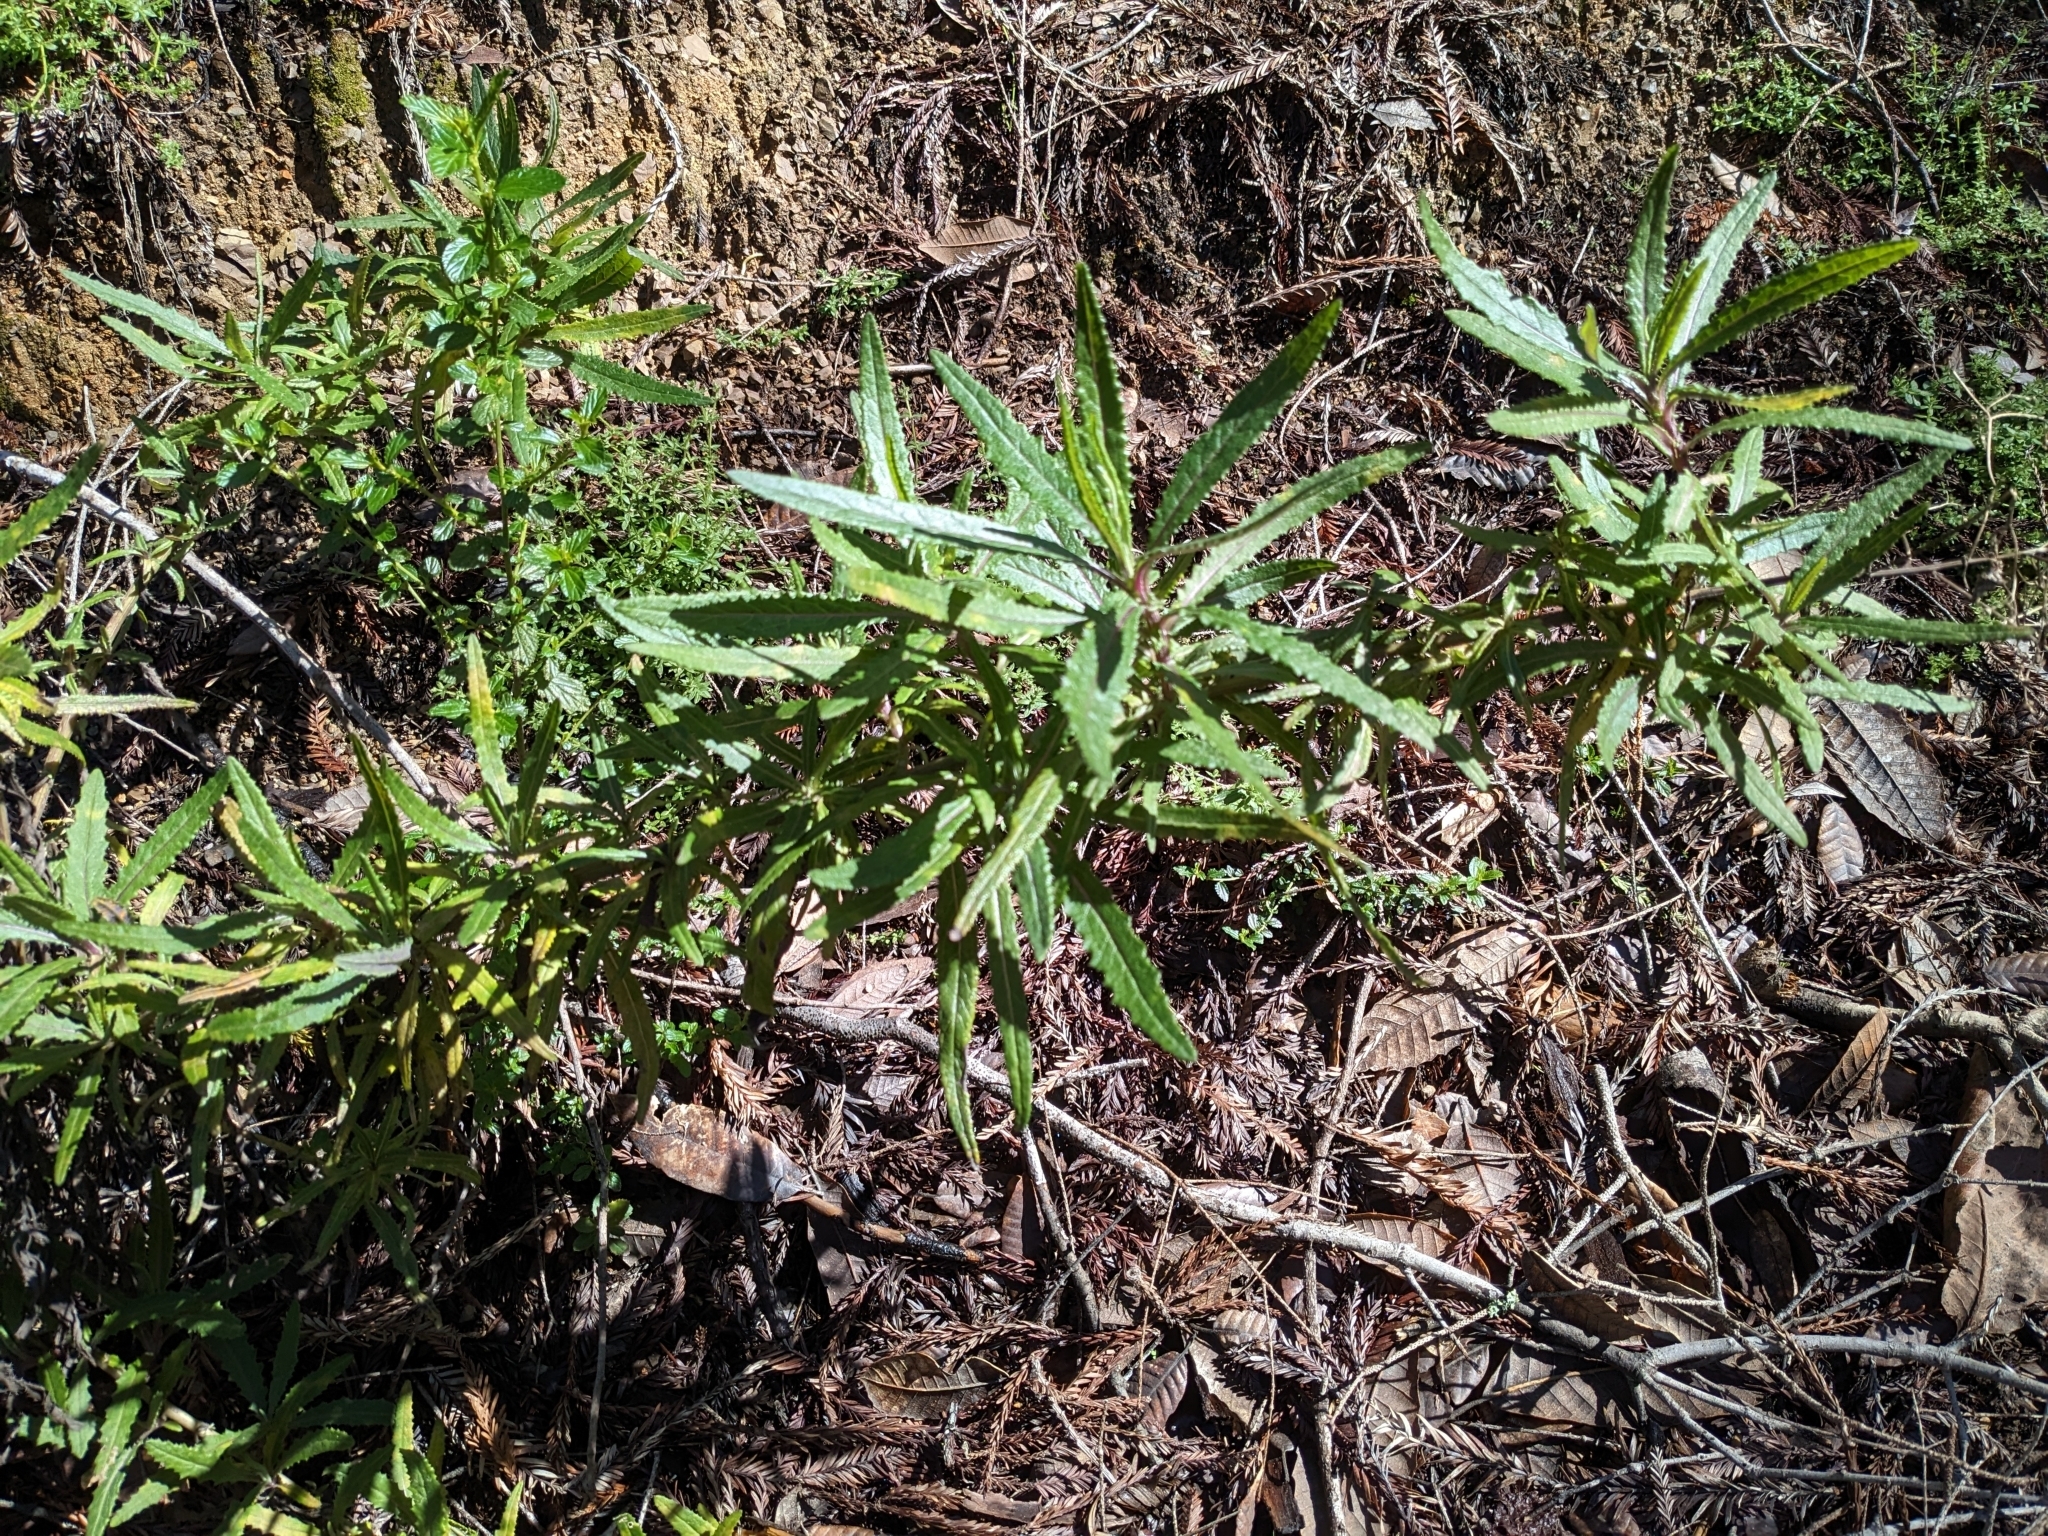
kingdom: Plantae
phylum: Tracheophyta
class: Magnoliopsida
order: Asterales
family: Asteraceae
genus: Senecio
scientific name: Senecio minimus
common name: Toothed fireweed
